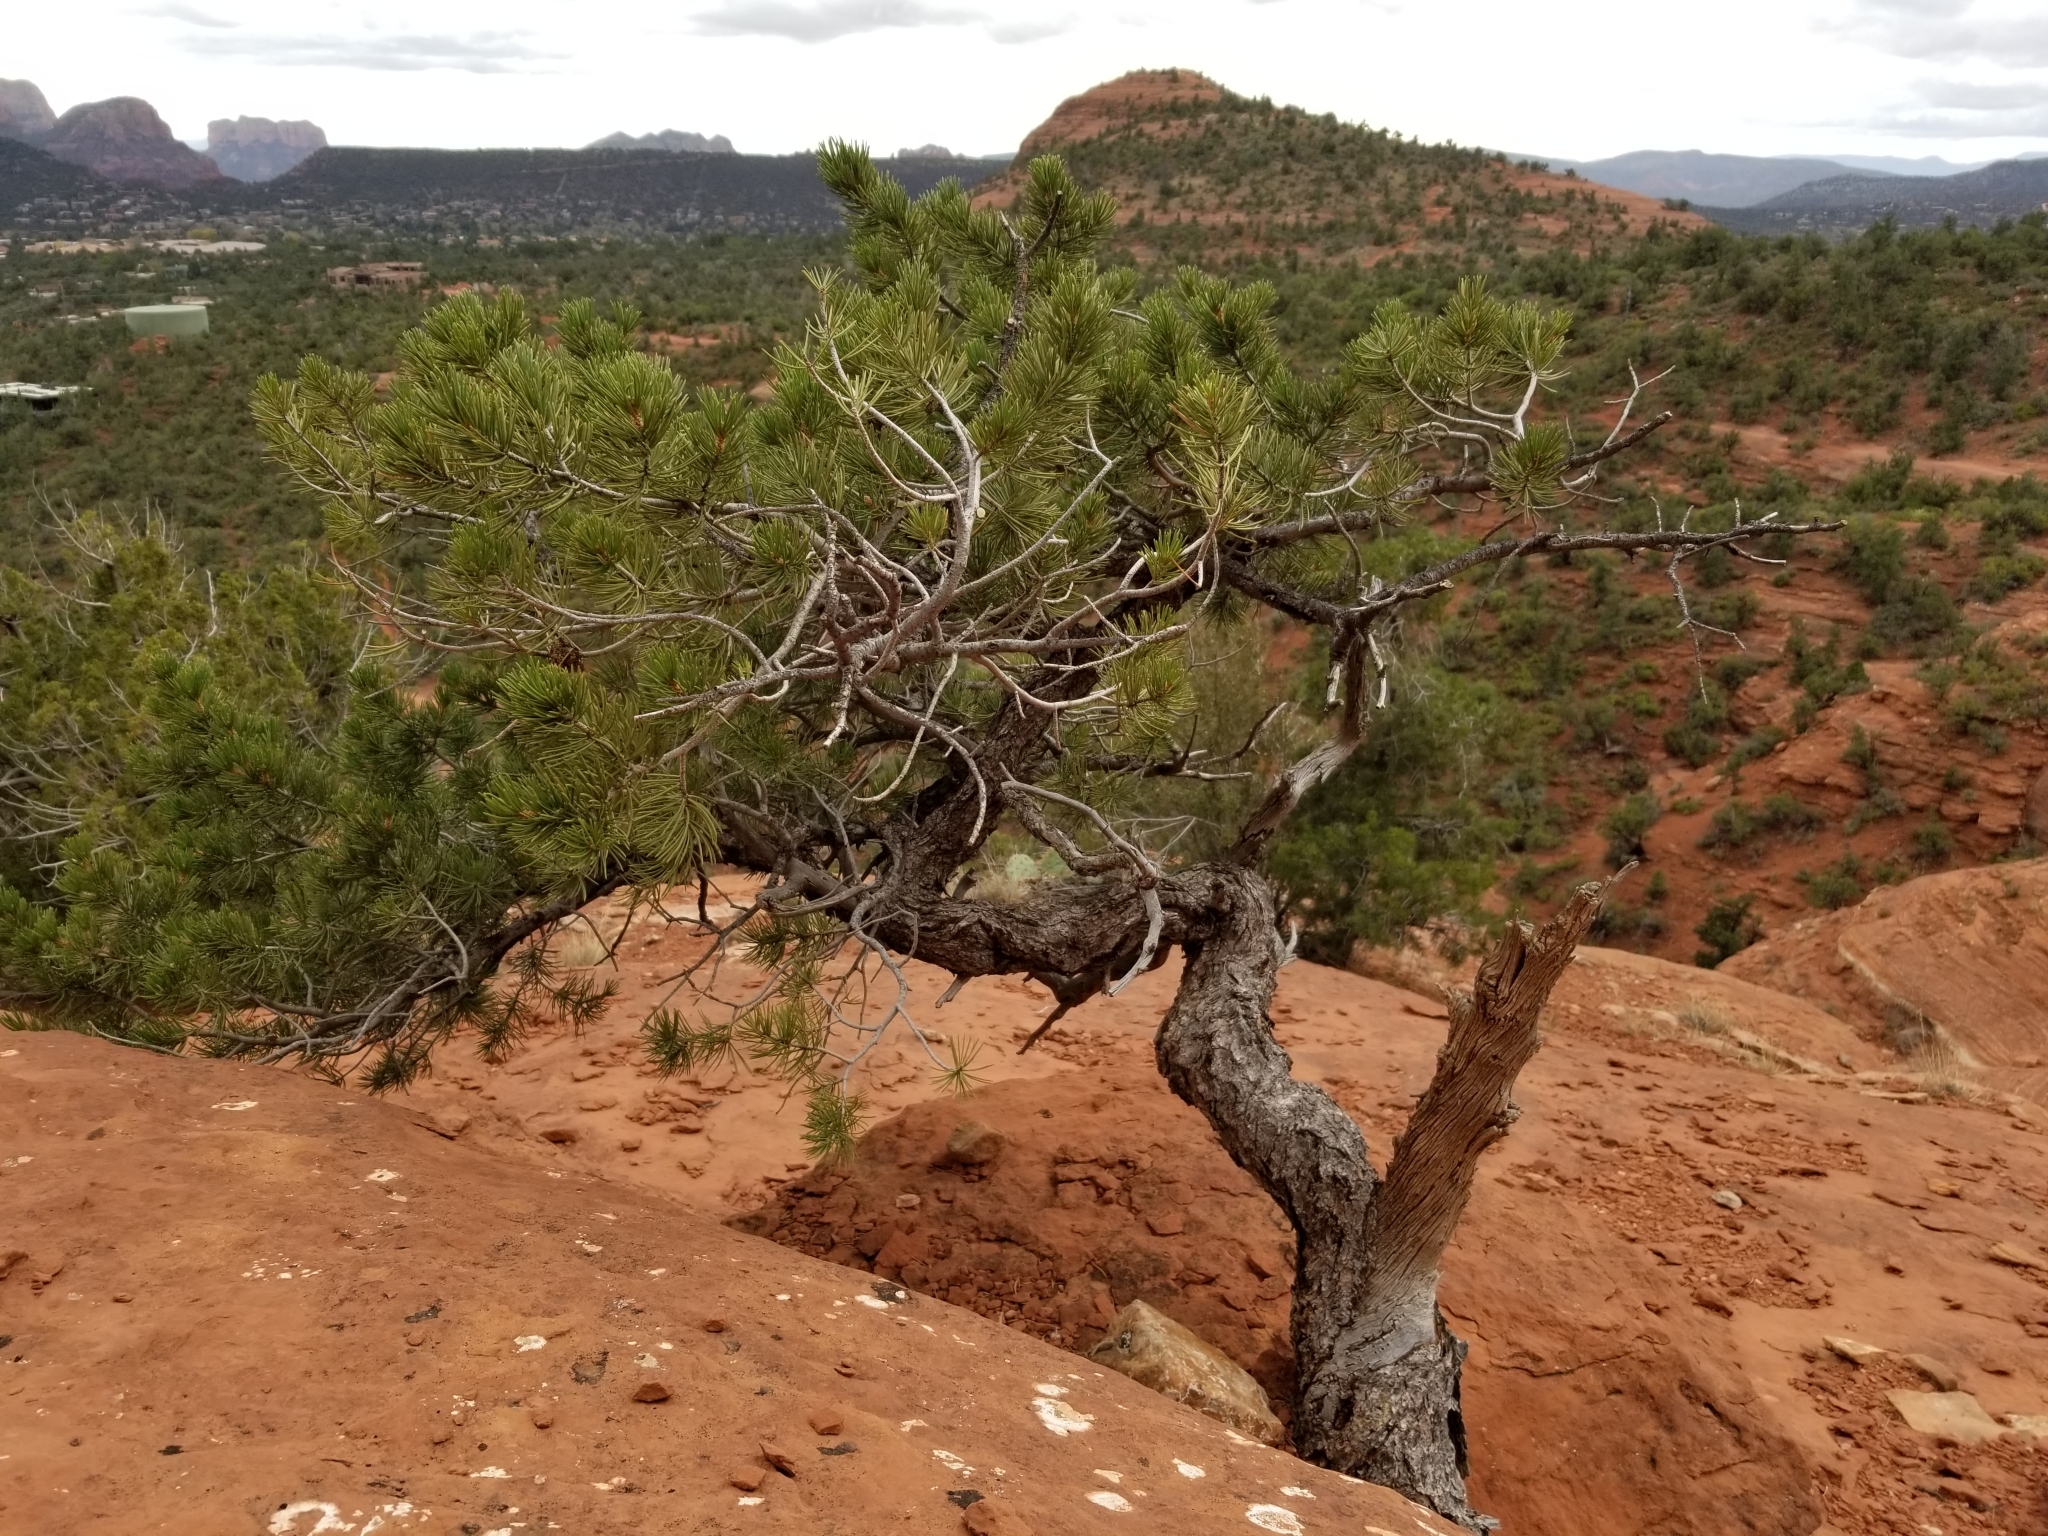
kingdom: Plantae
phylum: Tracheophyta
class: Pinopsida
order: Pinales
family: Pinaceae
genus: Pinus
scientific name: Pinus edulis
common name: Colorado pinyon
